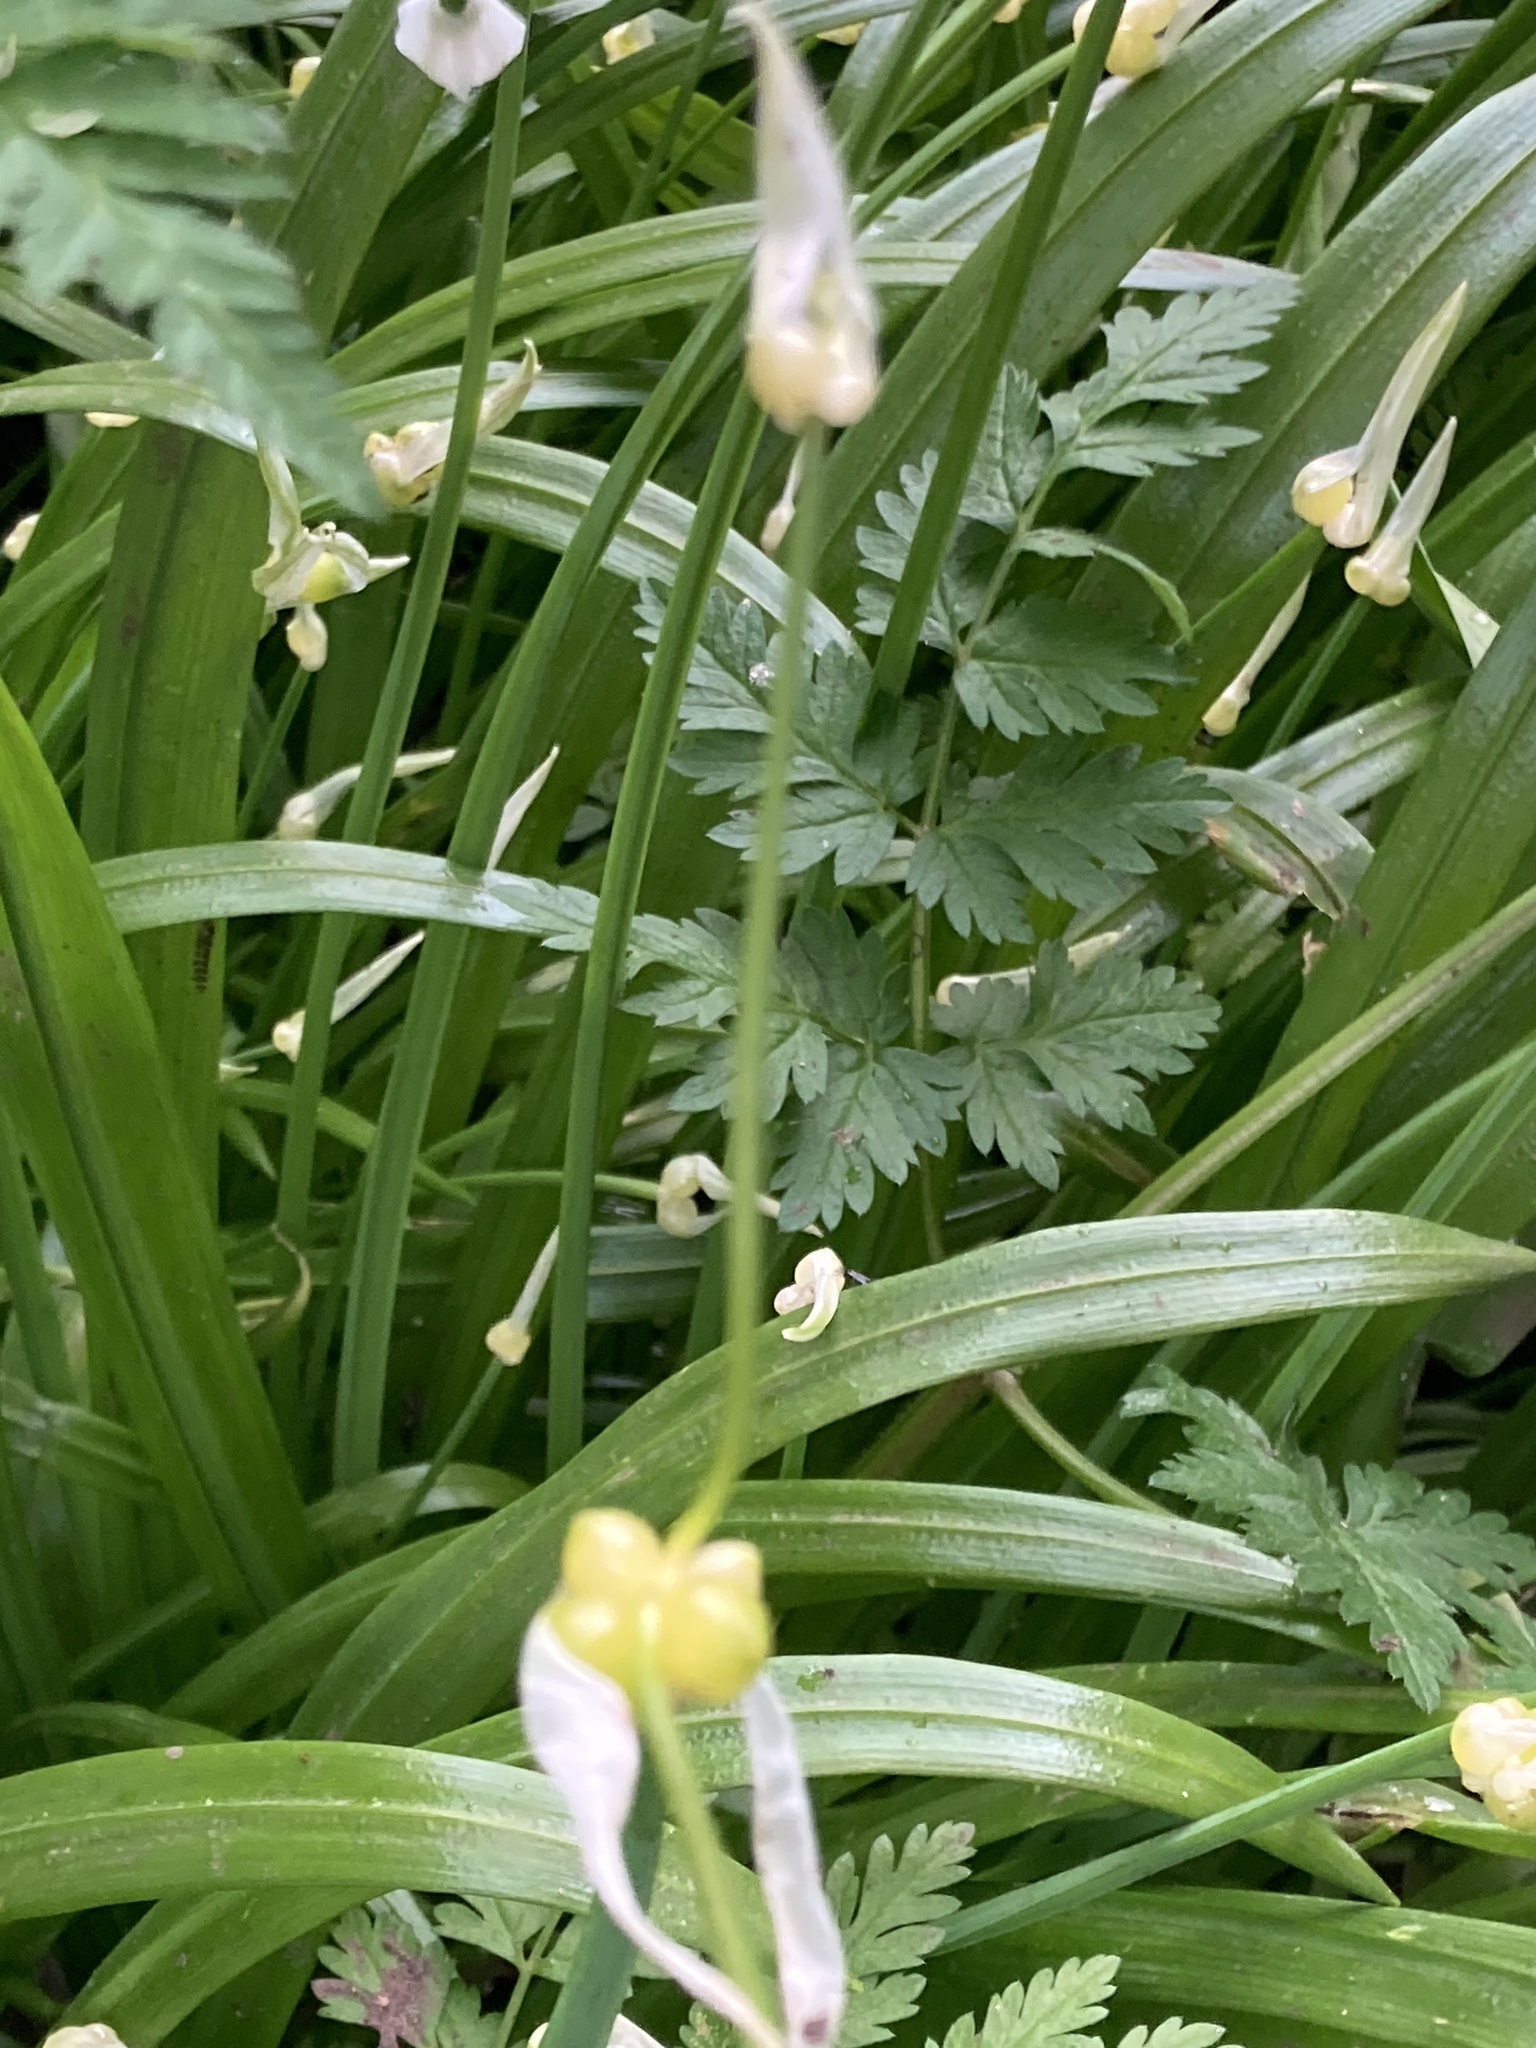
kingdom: Plantae
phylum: Tracheophyta
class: Liliopsida
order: Asparagales
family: Amaryllidaceae
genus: Allium
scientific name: Allium paradoxum
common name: Few-flowered garlic
